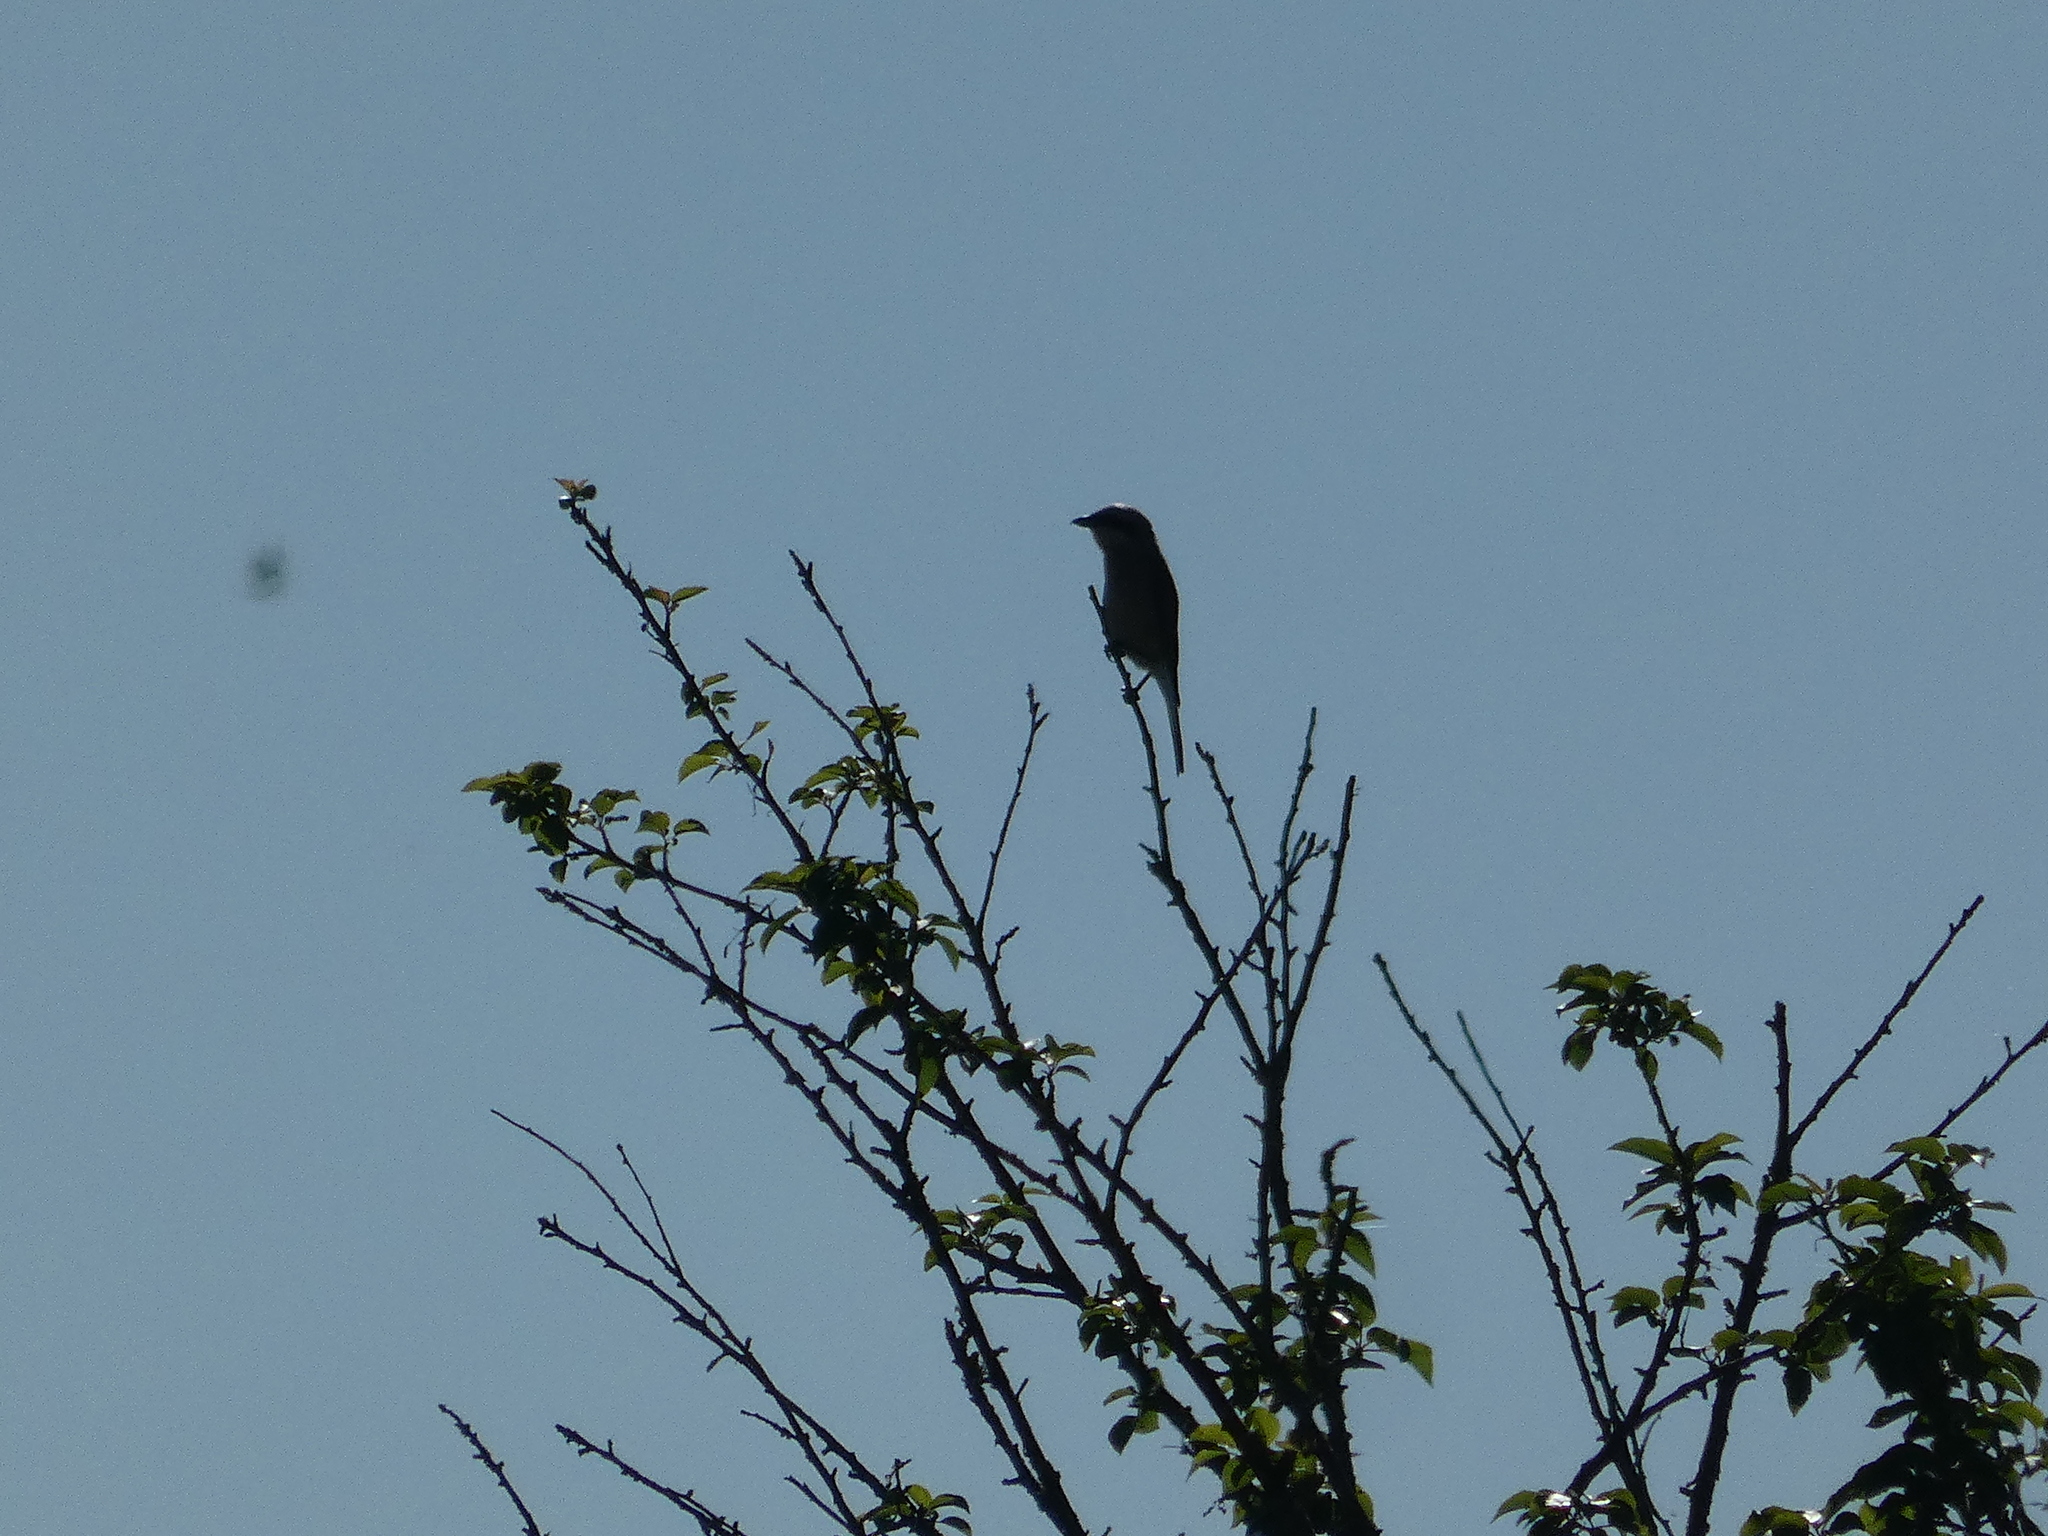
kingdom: Animalia
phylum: Chordata
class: Aves
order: Passeriformes
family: Laniidae
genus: Lanius
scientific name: Lanius collurio
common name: Red-backed shrike
